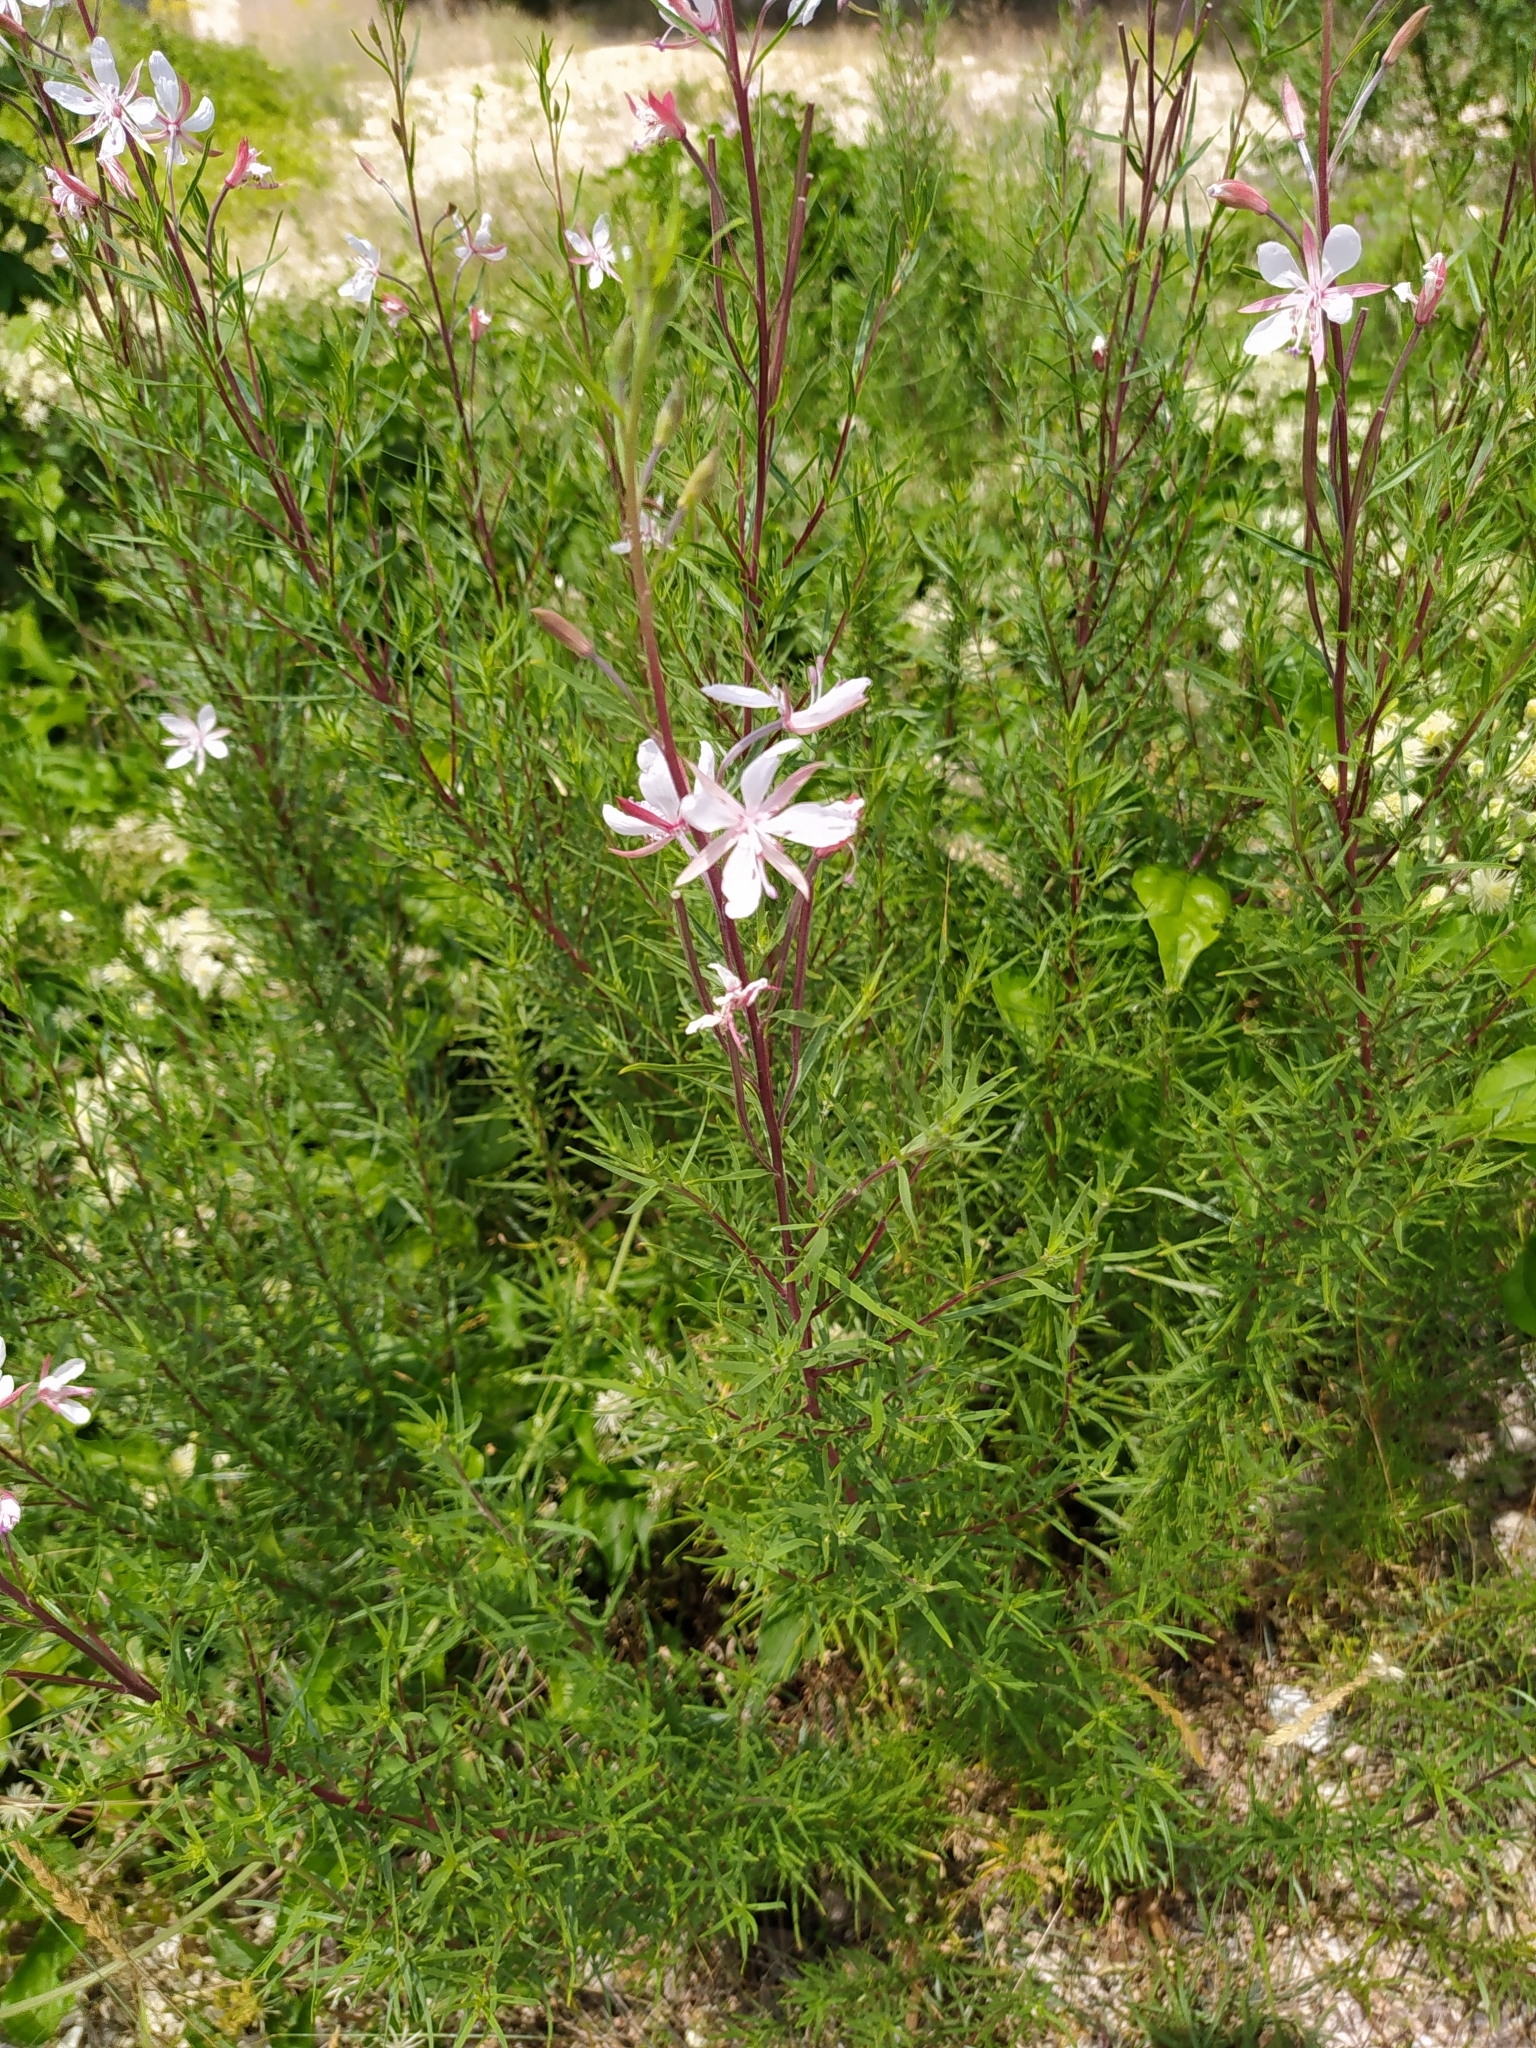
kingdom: Plantae
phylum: Tracheophyta
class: Magnoliopsida
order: Myrtales
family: Onagraceae
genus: Chamaenerion
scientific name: Chamaenerion dodonaei
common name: Rosemary-leaved willowherb
